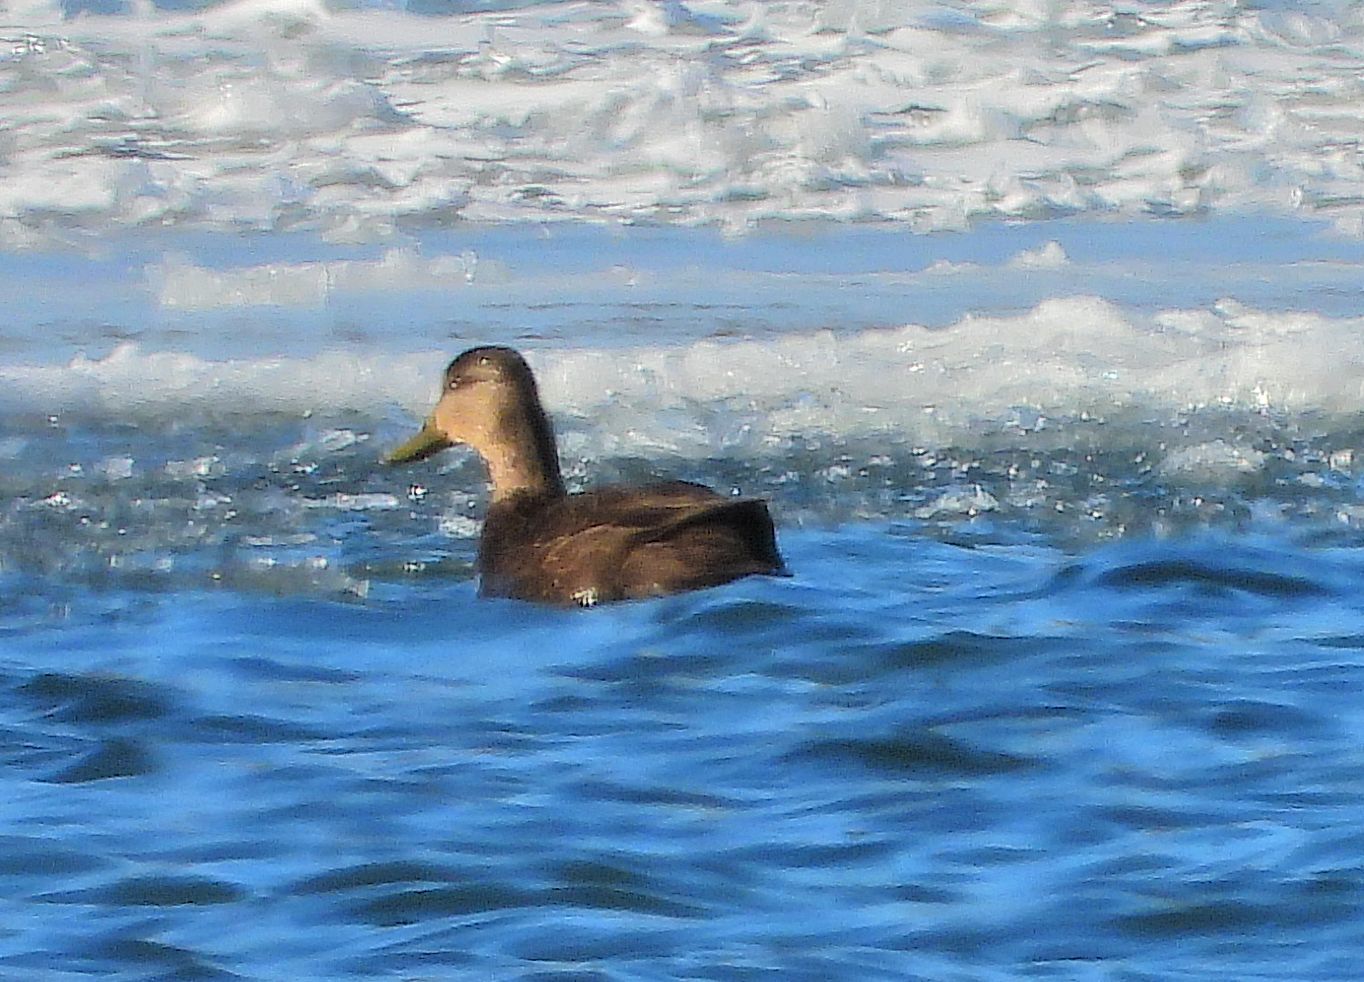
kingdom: Animalia
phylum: Chordata
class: Aves
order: Anseriformes
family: Anatidae
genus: Anas
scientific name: Anas rubripes
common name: American black duck
